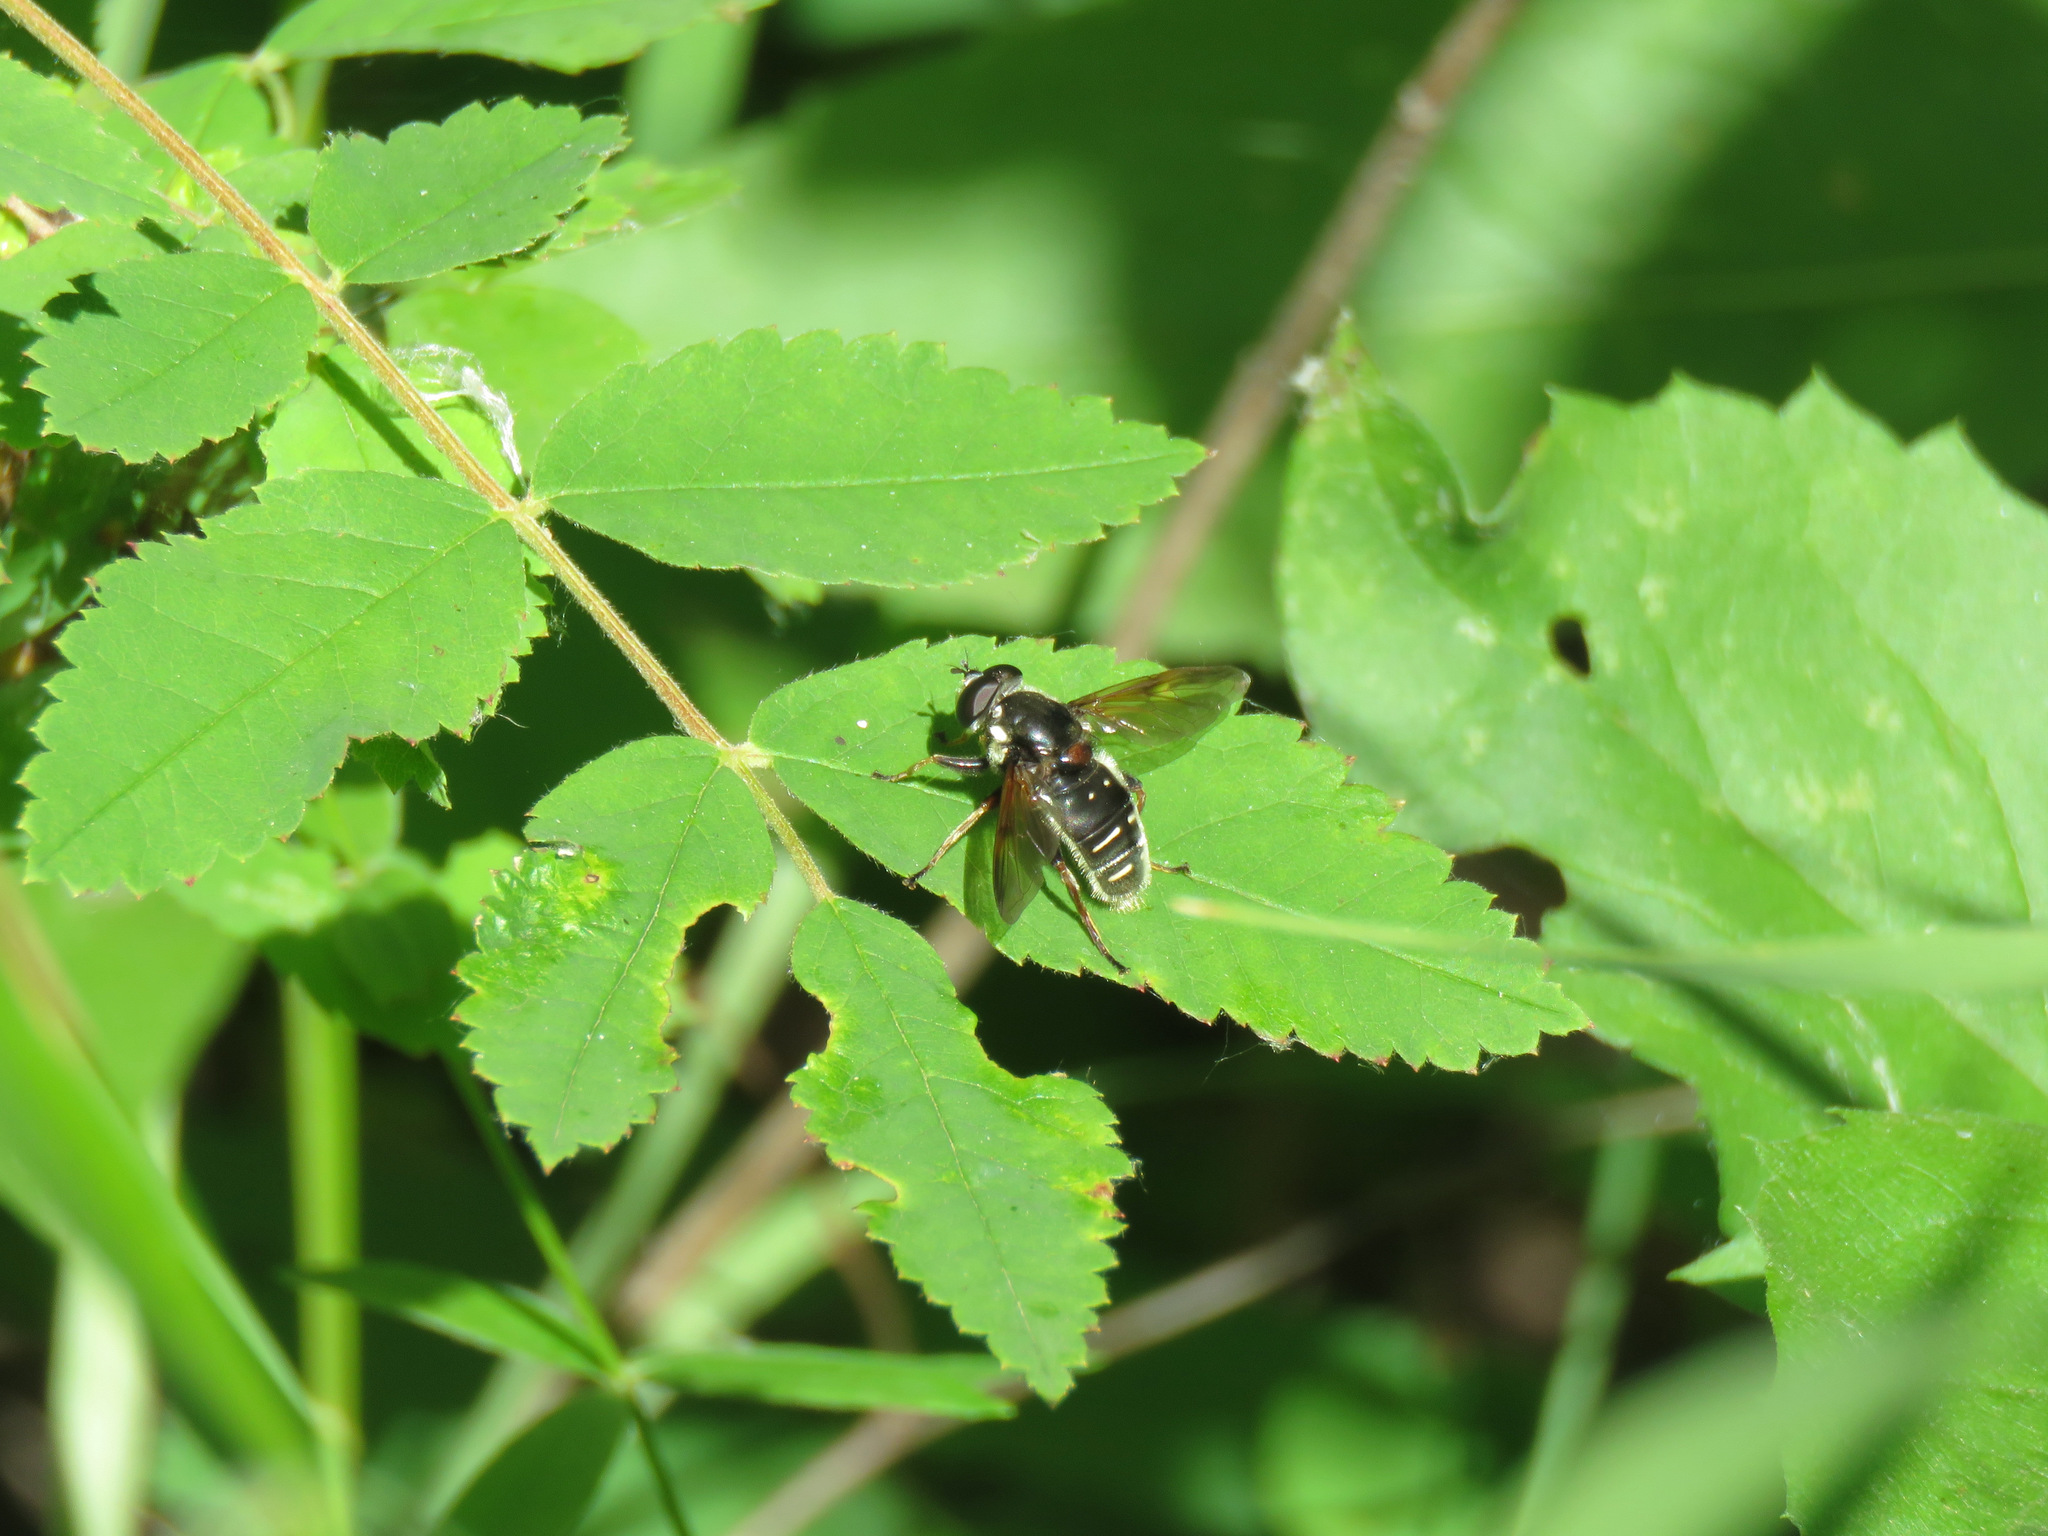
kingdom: Animalia
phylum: Arthropoda
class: Insecta
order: Diptera
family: Syrphidae
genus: Sericomyia
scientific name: Sericomyia militaris
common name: Narrow-banded pond fly
